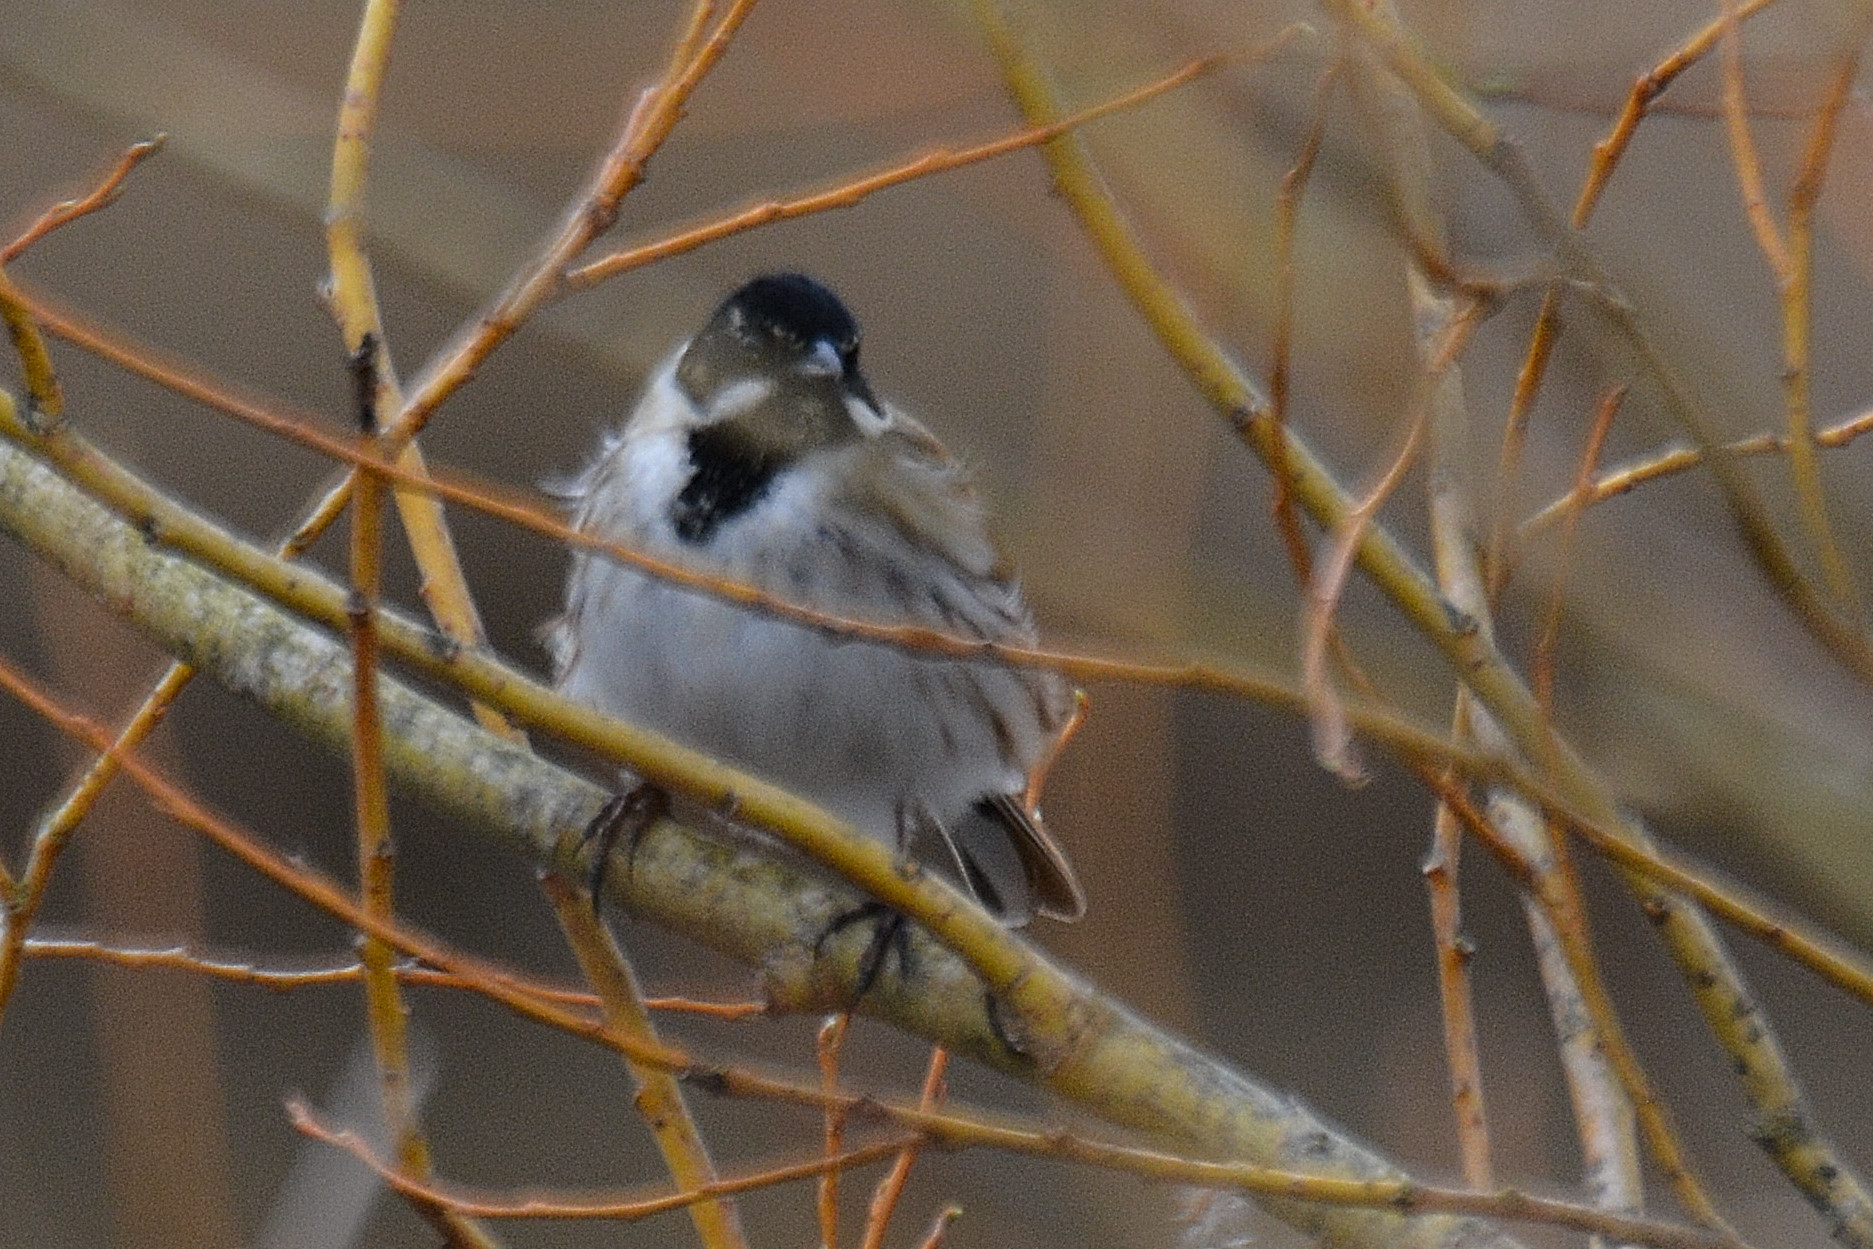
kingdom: Animalia
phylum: Chordata
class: Aves
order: Passeriformes
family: Emberizidae
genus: Emberiza
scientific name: Emberiza schoeniclus
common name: Reed bunting
